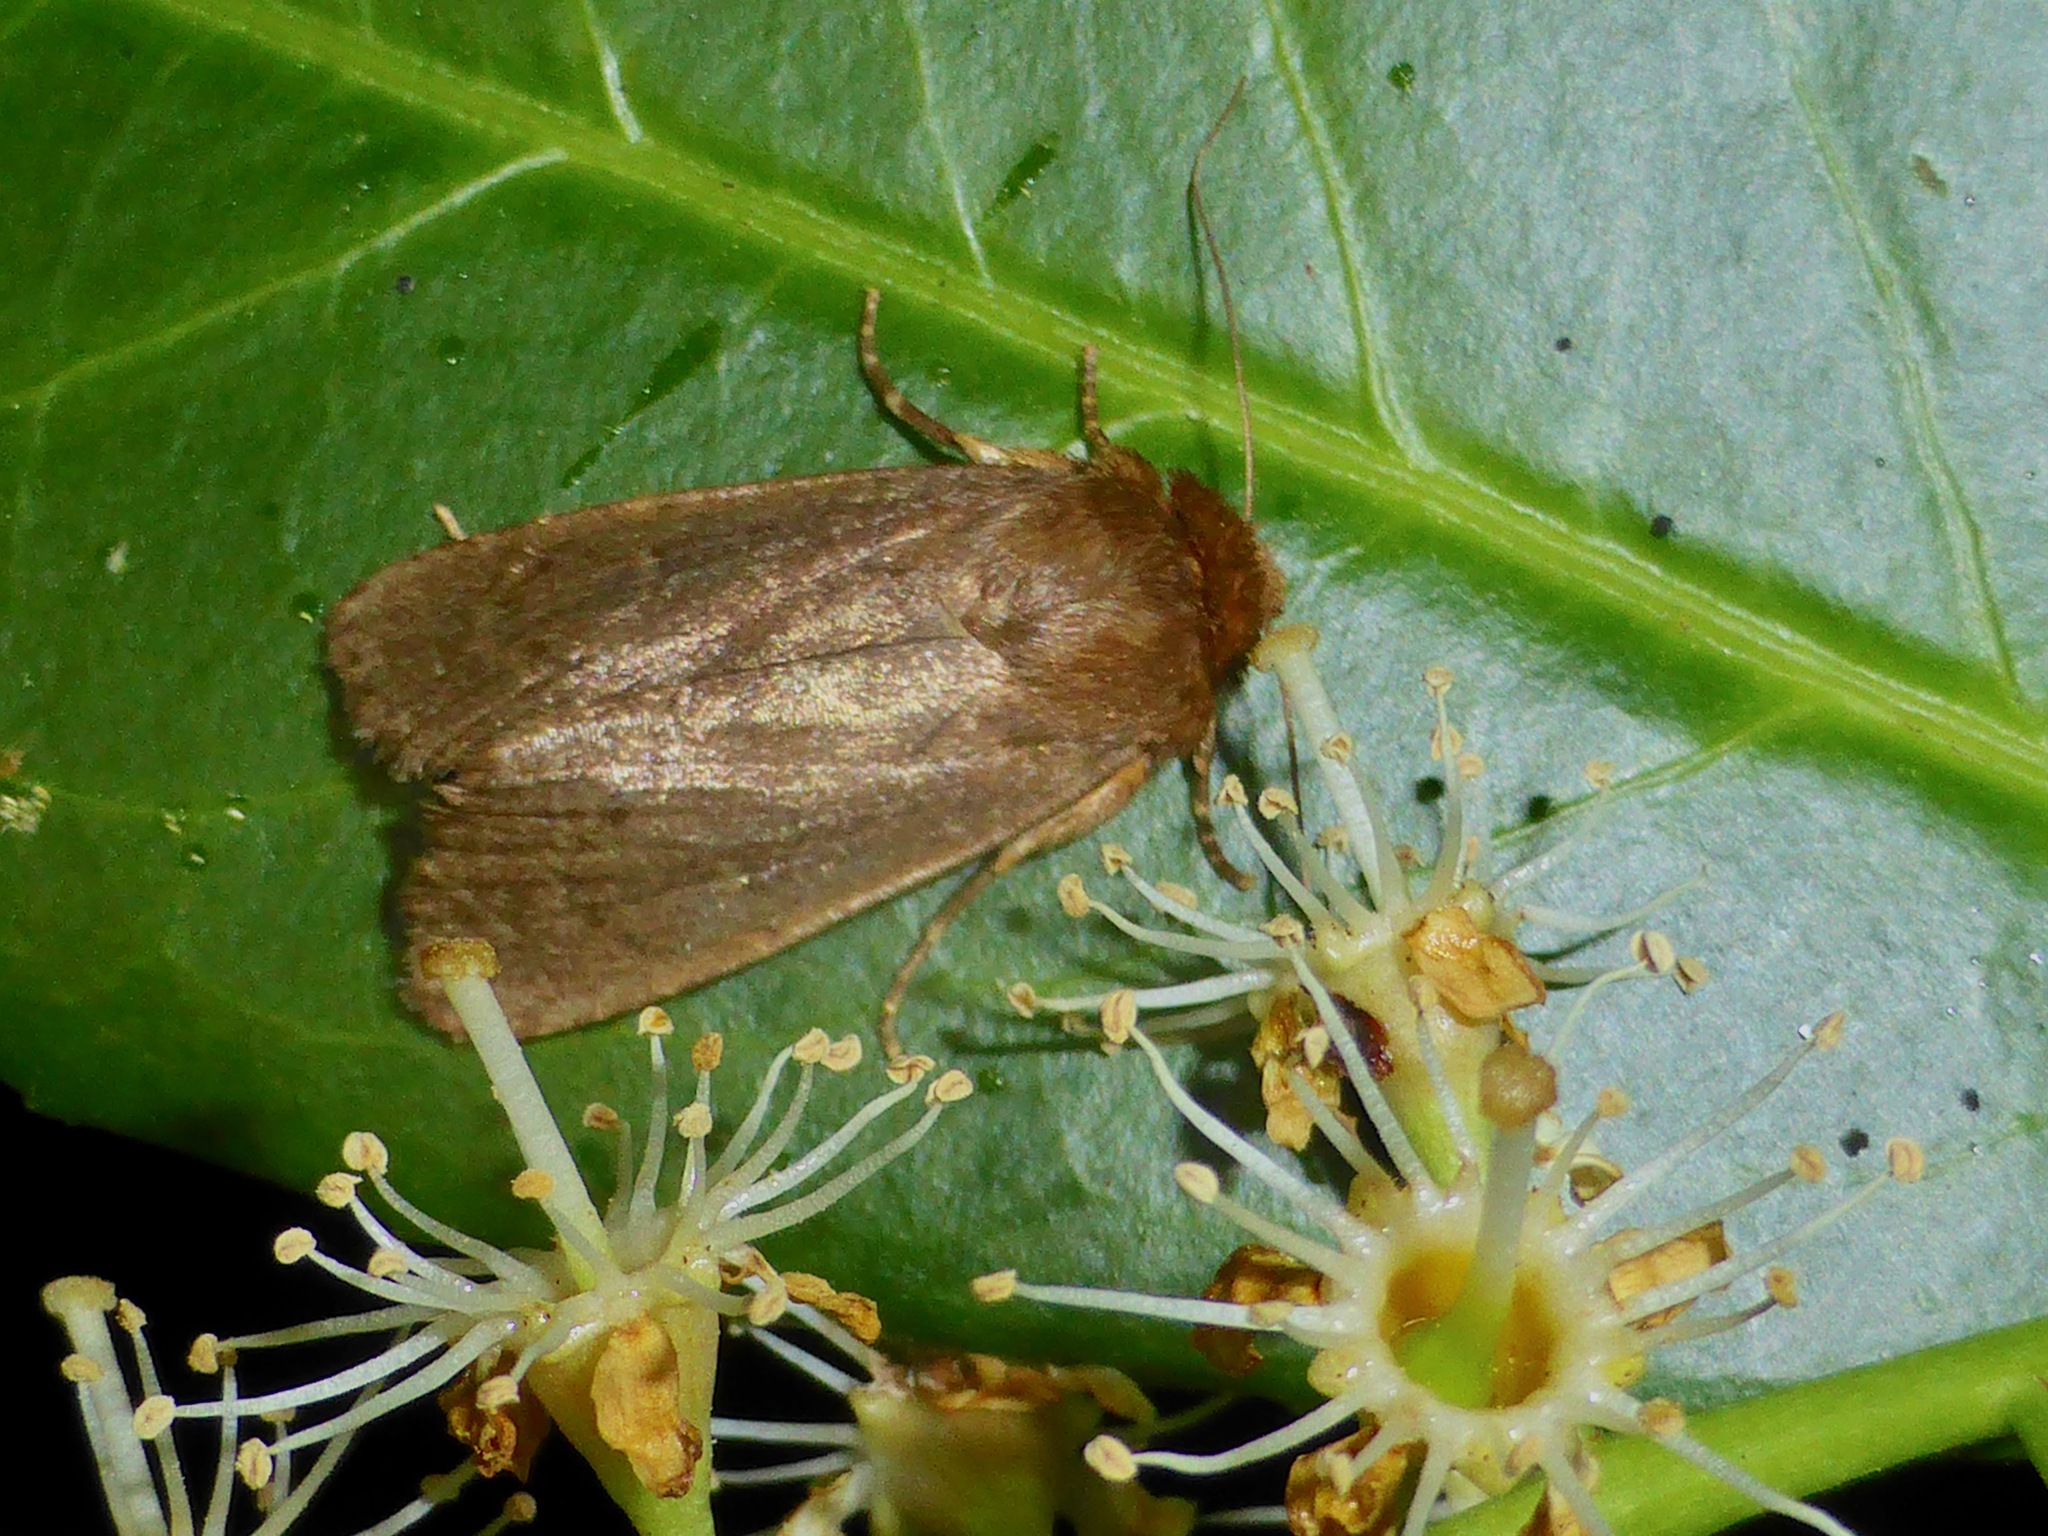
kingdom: Animalia
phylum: Arthropoda
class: Insecta
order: Lepidoptera
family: Noctuidae
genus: Bityla
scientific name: Bityla defigurata
